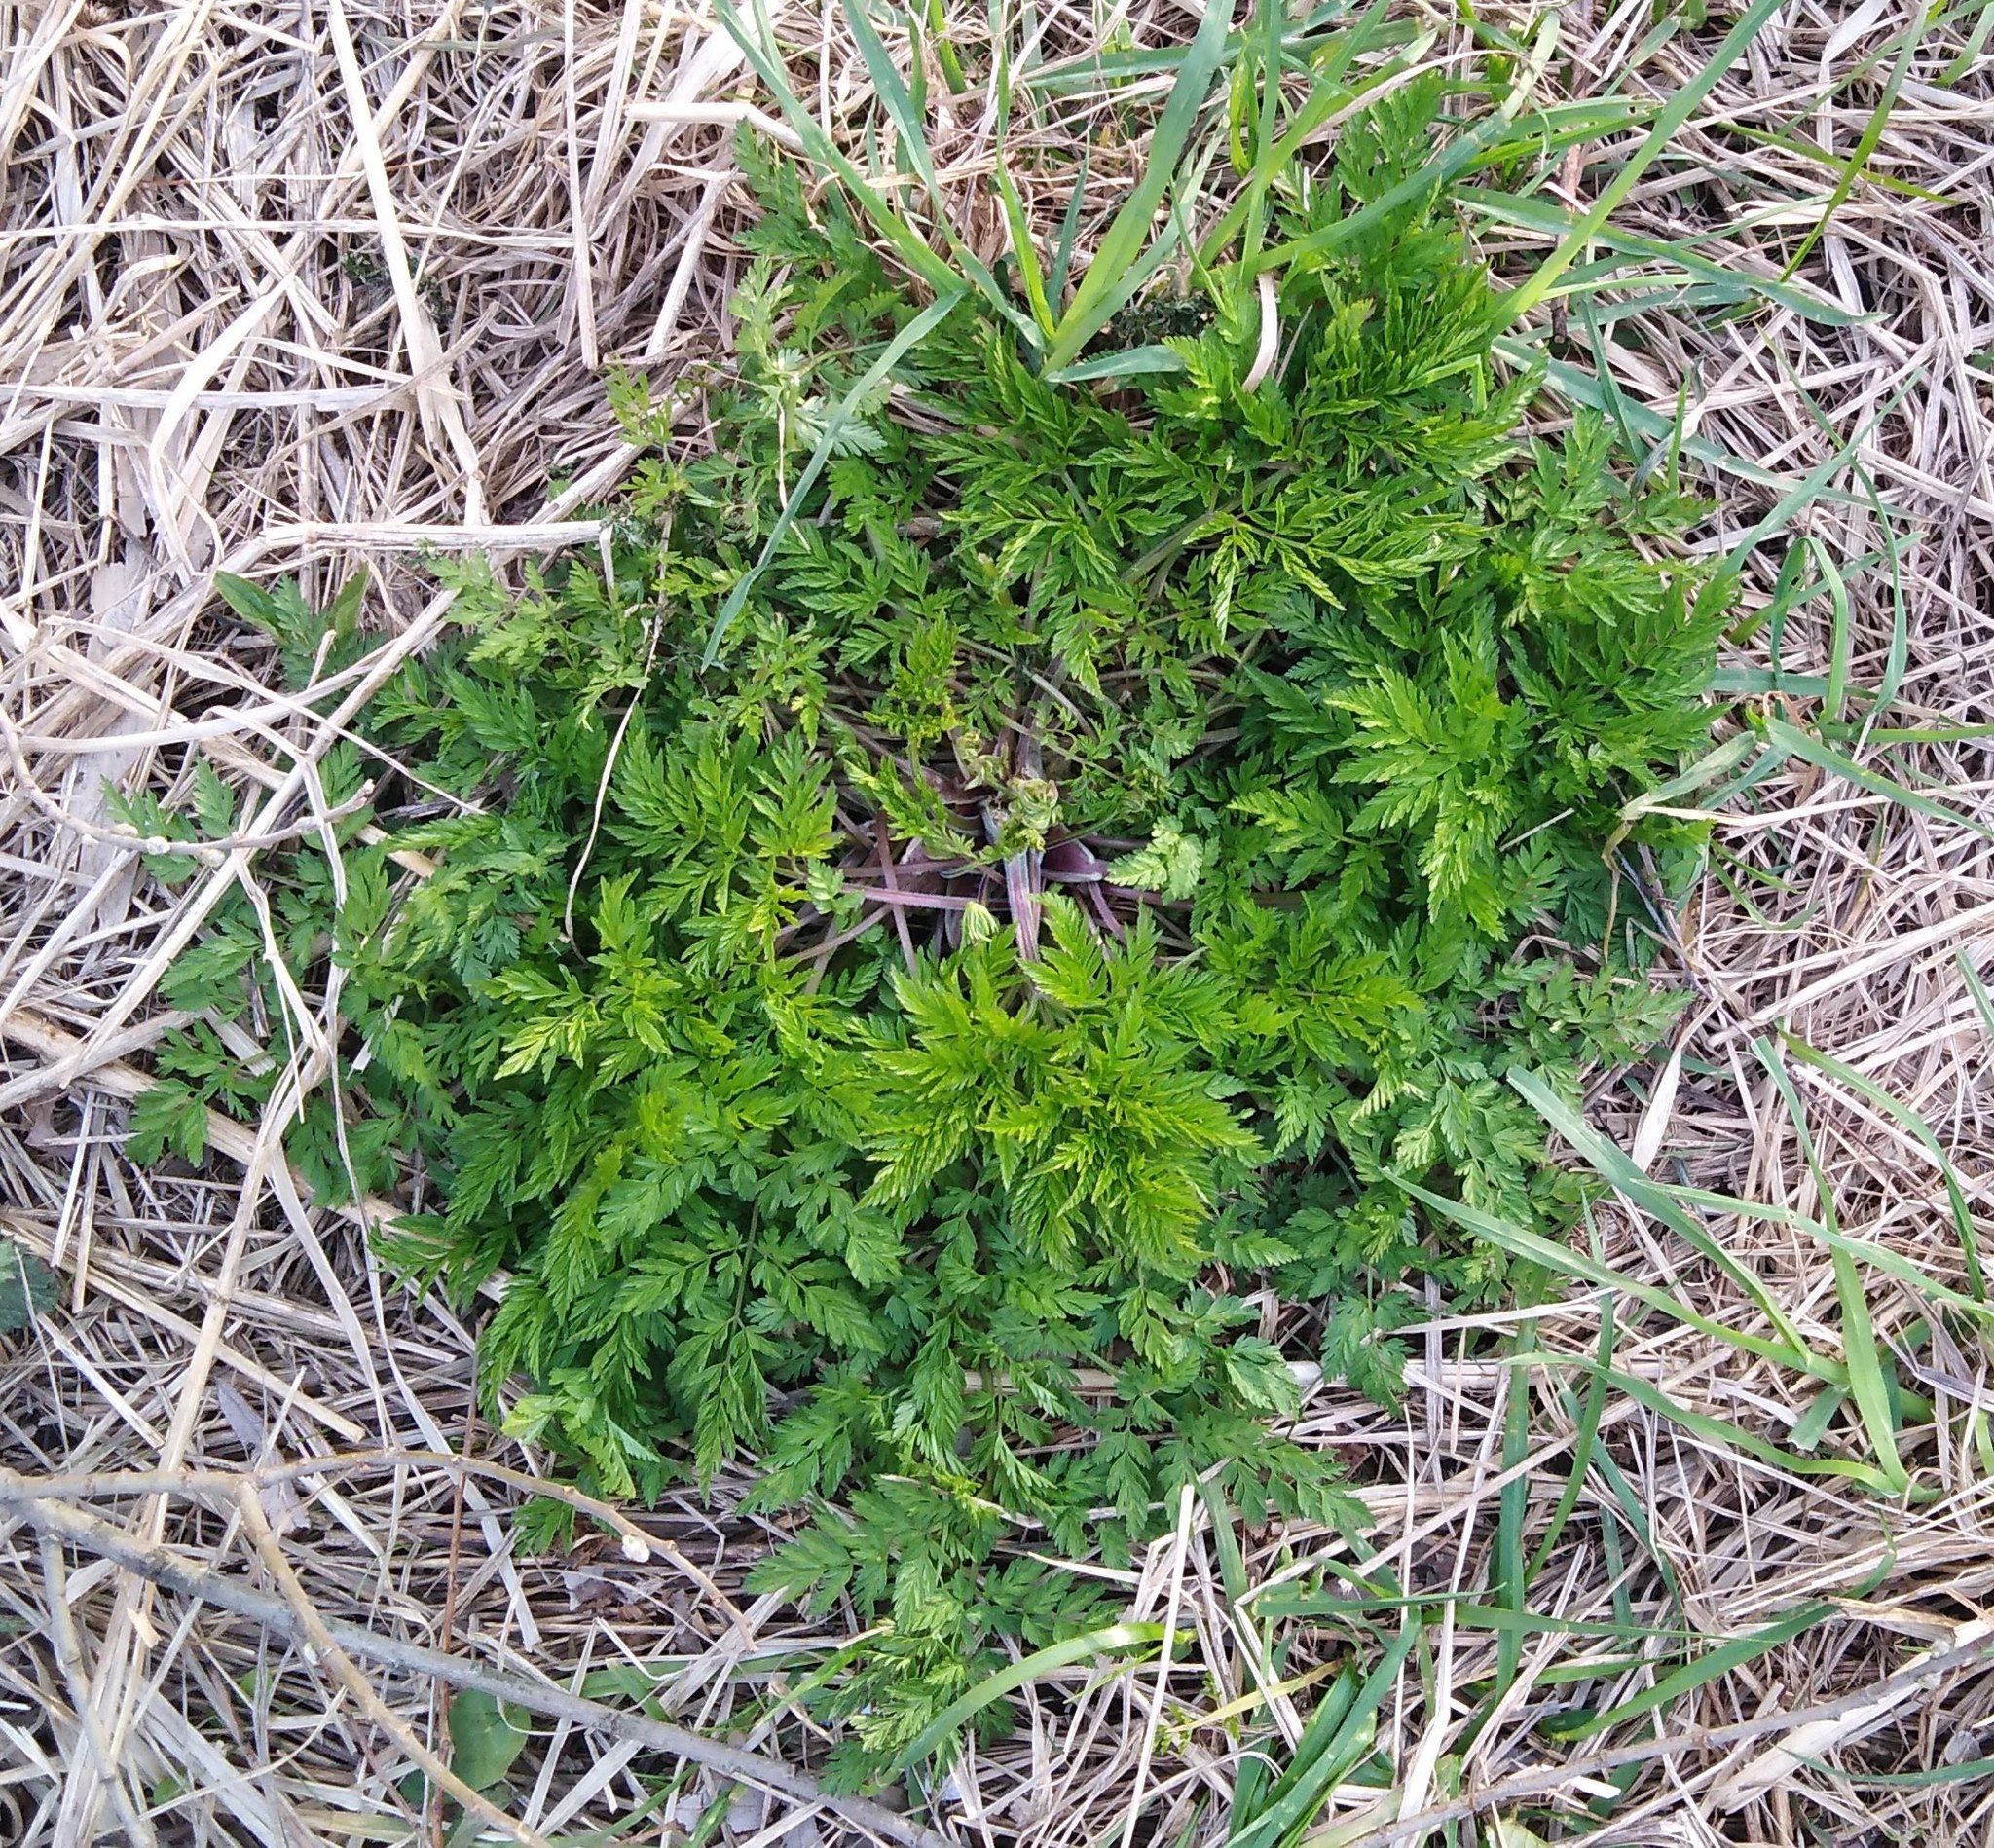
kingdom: Plantae
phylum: Tracheophyta
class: Magnoliopsida
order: Apiales
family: Apiaceae
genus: Anthriscus
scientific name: Anthriscus sylvestris
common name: Cow parsley
